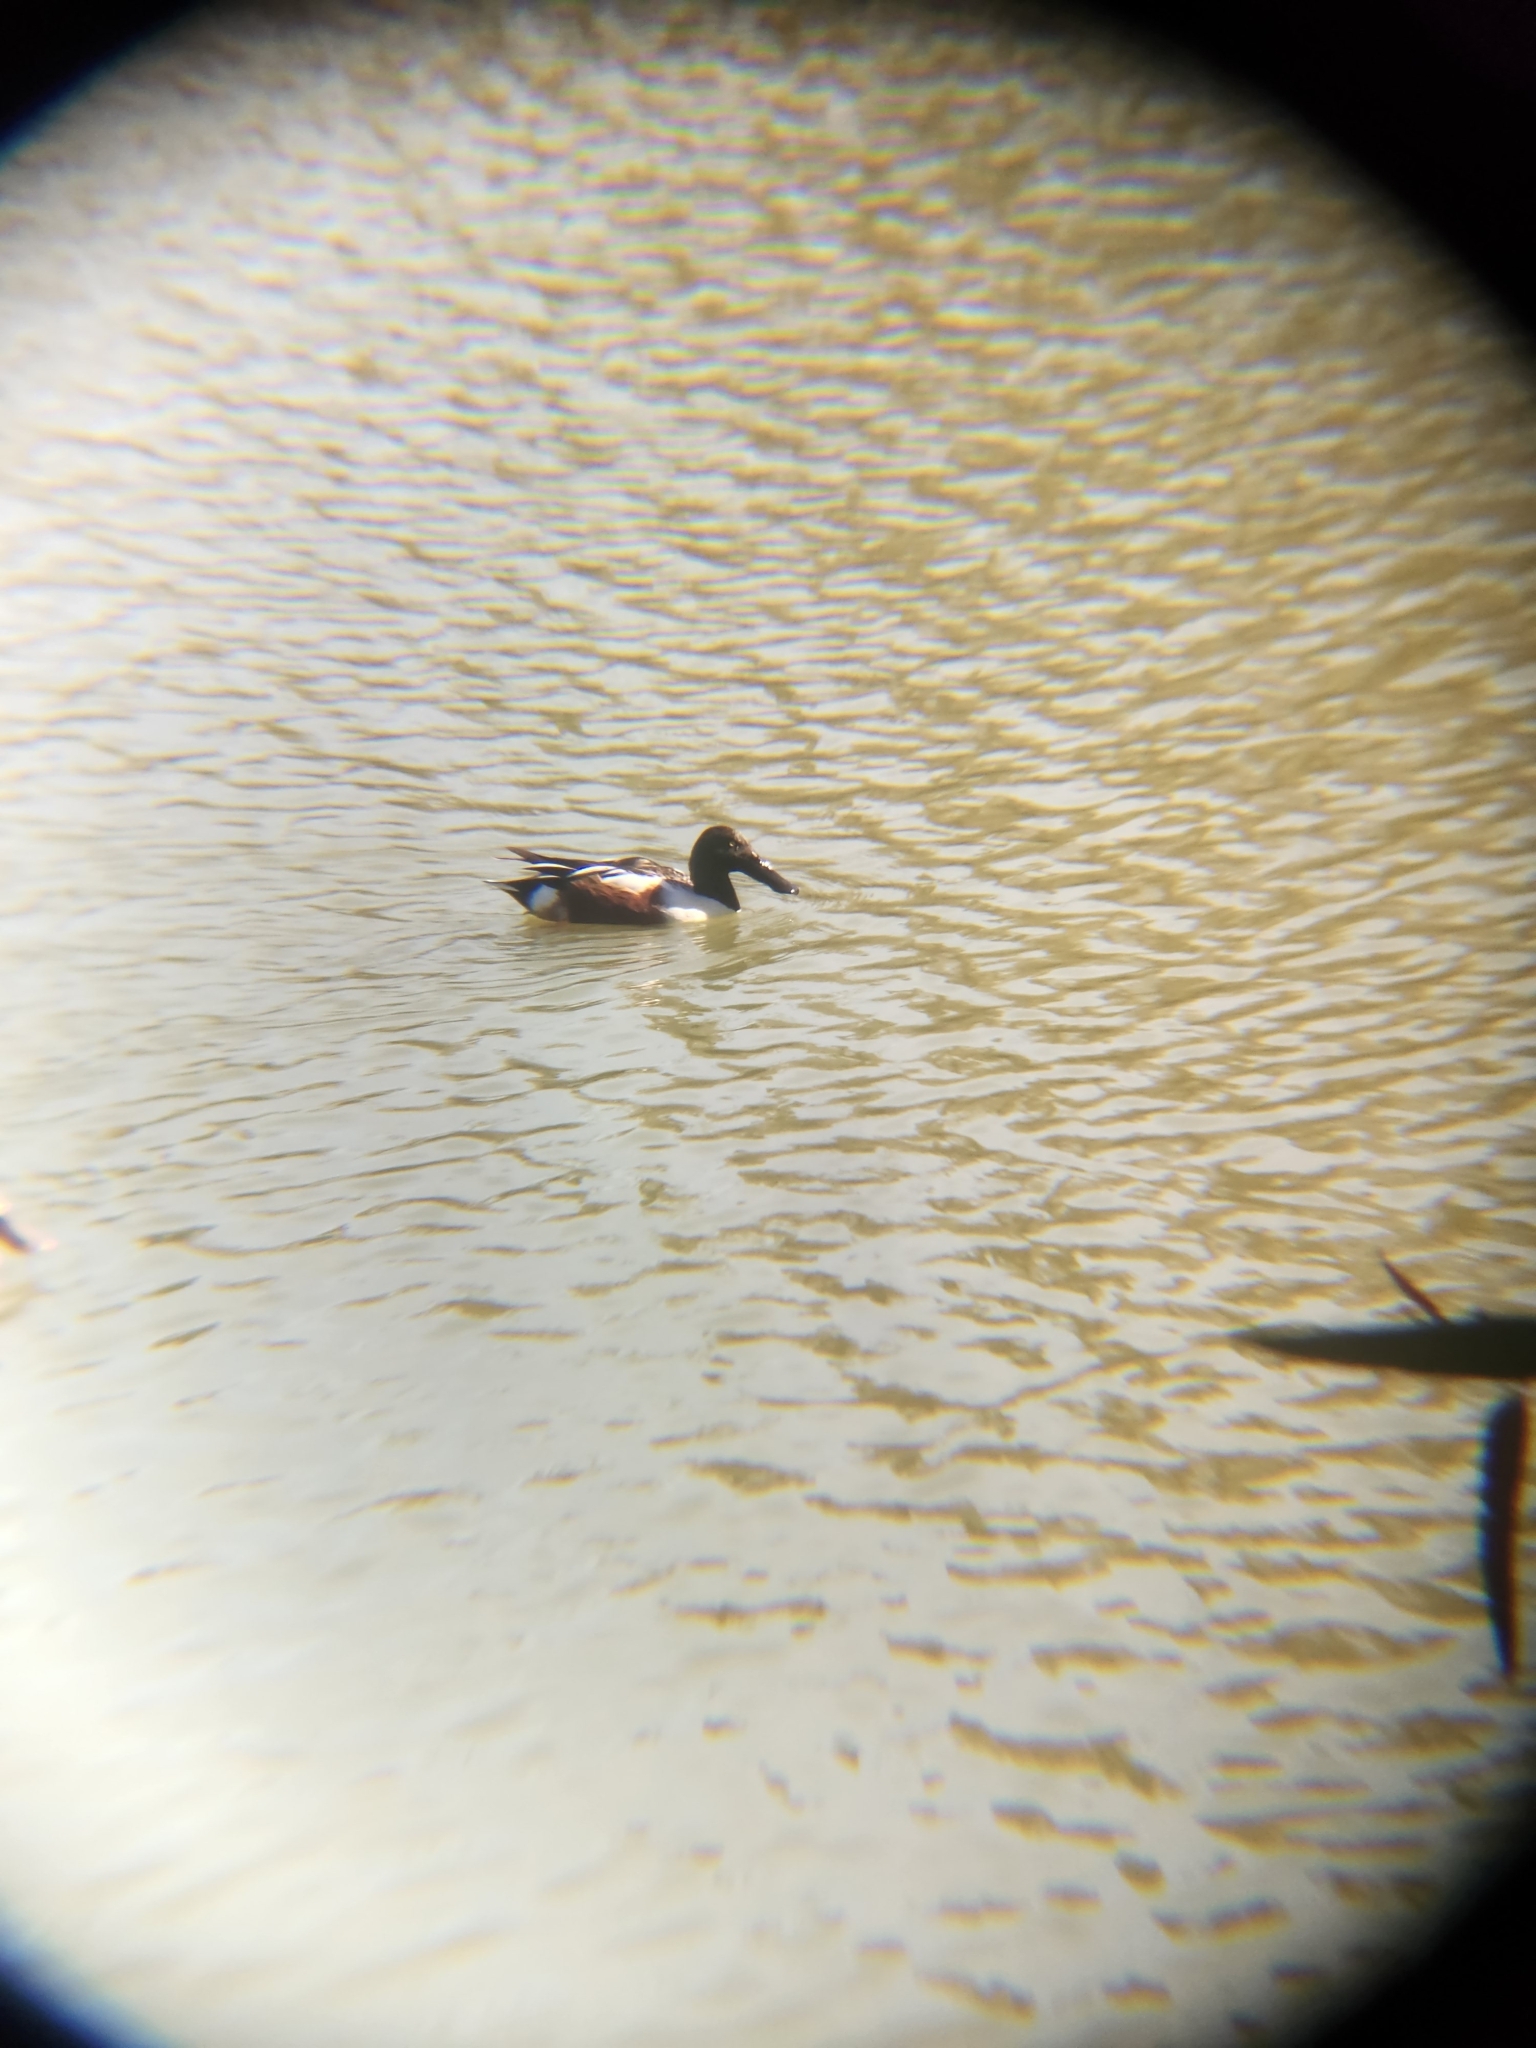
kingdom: Animalia
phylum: Chordata
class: Aves
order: Anseriformes
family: Anatidae
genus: Spatula
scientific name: Spatula clypeata
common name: Northern shoveler
